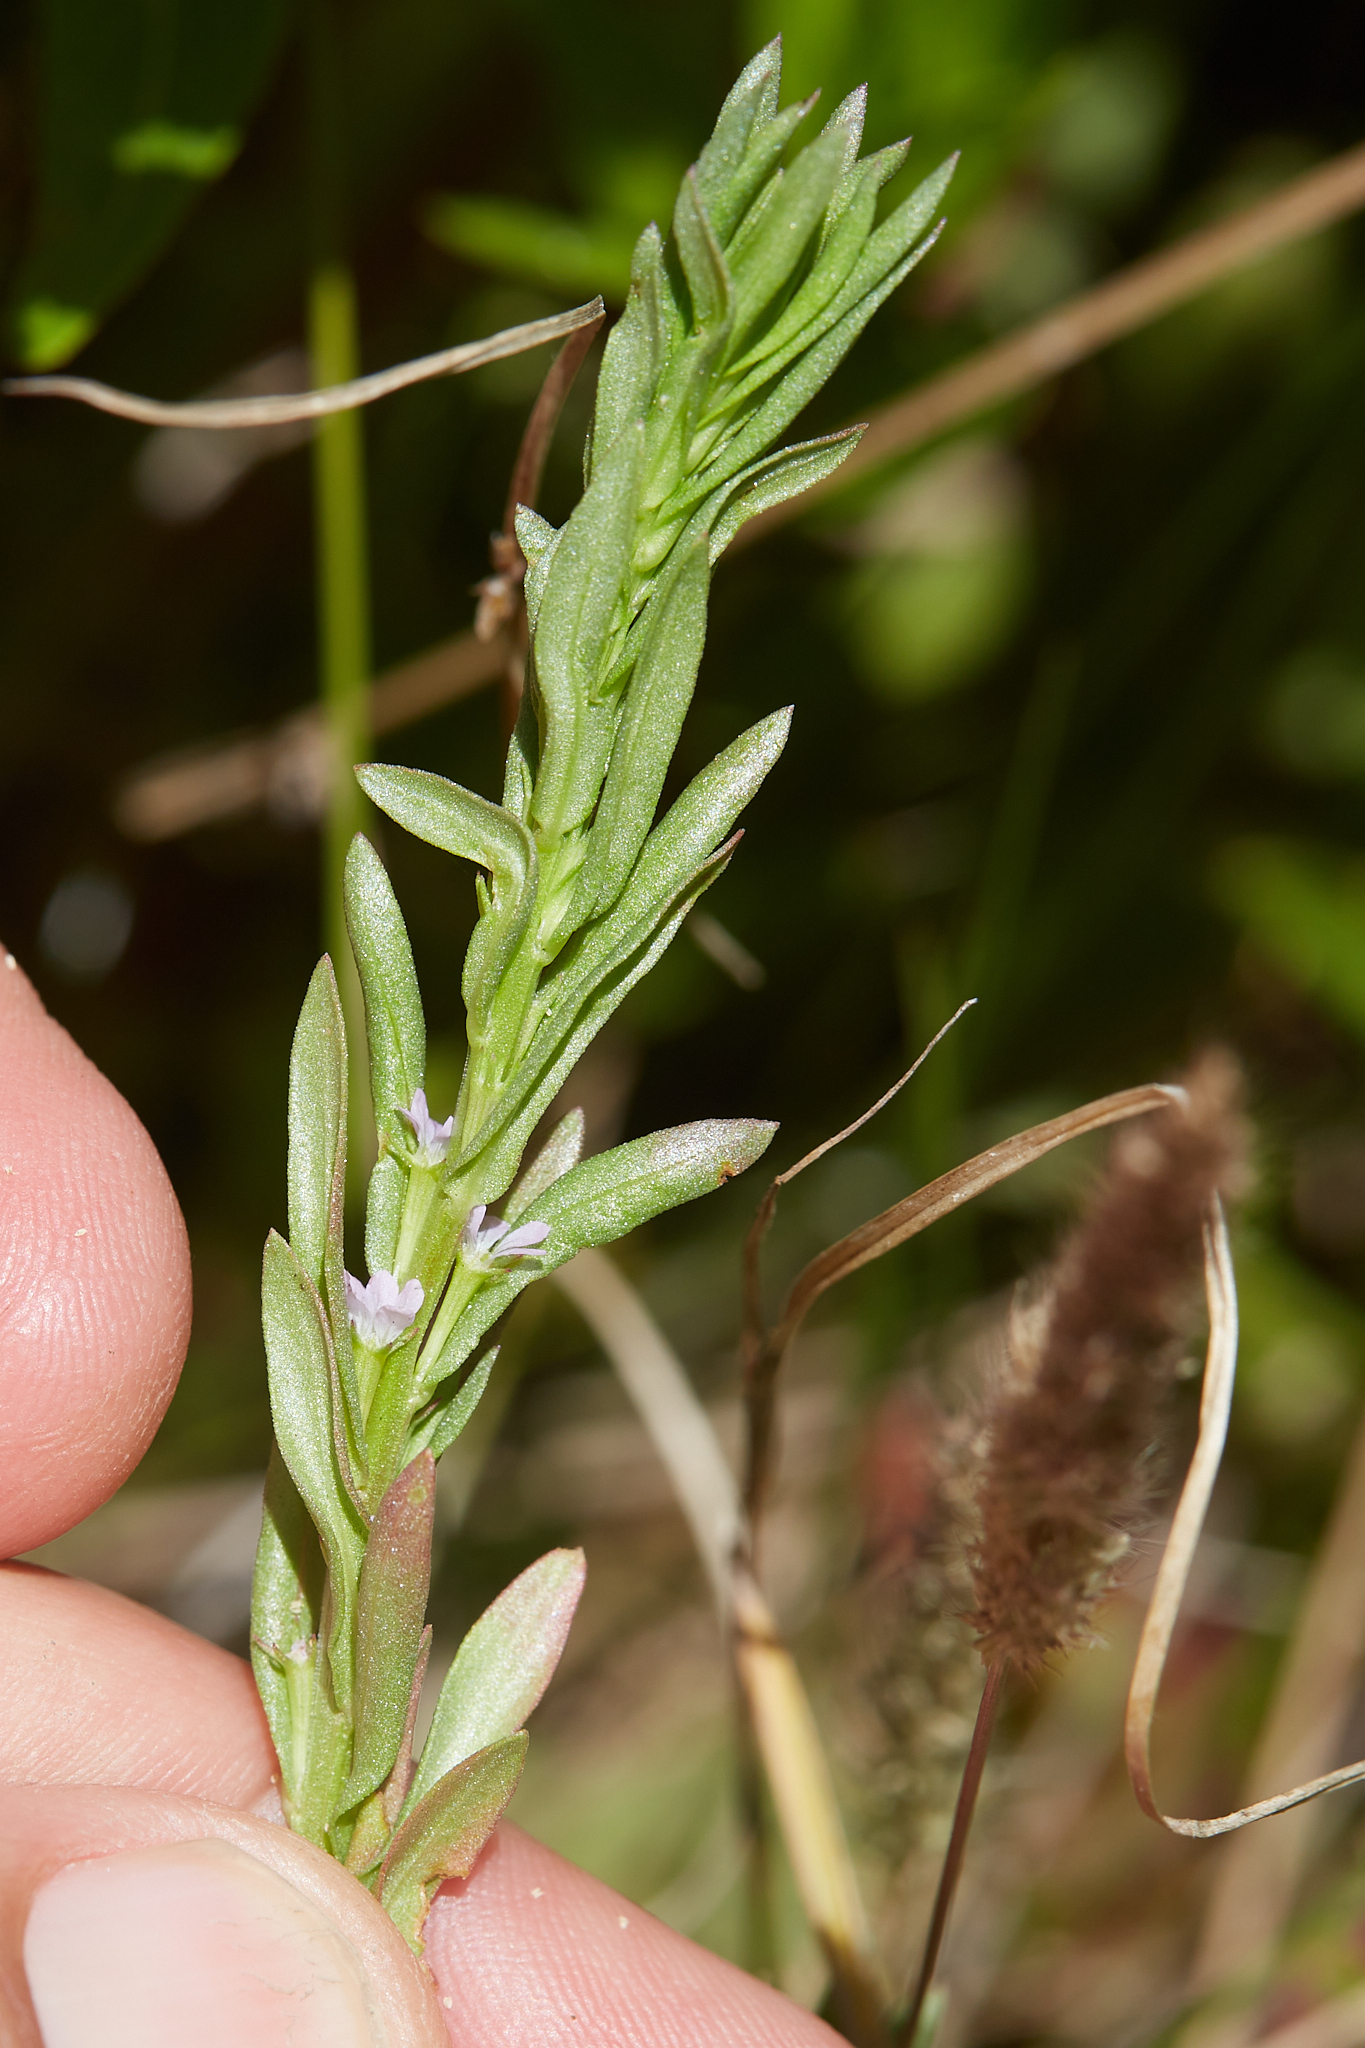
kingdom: Plantae
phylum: Tracheophyta
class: Magnoliopsida
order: Myrtales
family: Lythraceae
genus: Lythrum
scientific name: Lythrum hyssopifolia
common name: Grass-poly
